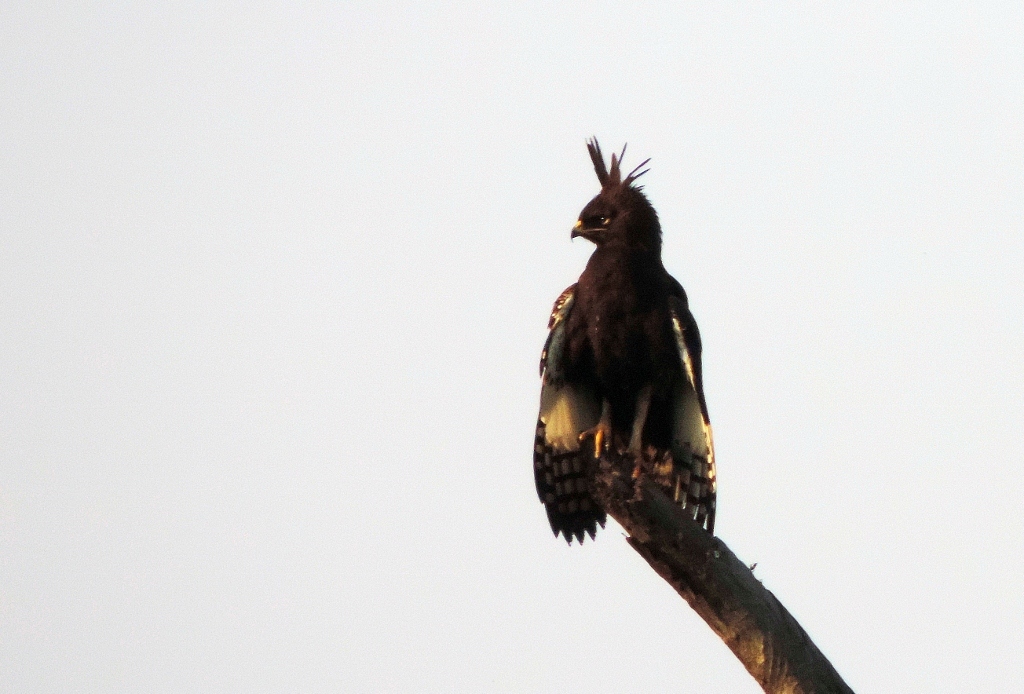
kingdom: Animalia
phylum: Chordata
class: Aves
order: Accipitriformes
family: Accipitridae
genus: Lophaetus
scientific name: Lophaetus occipitalis
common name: Long-crested eagle
